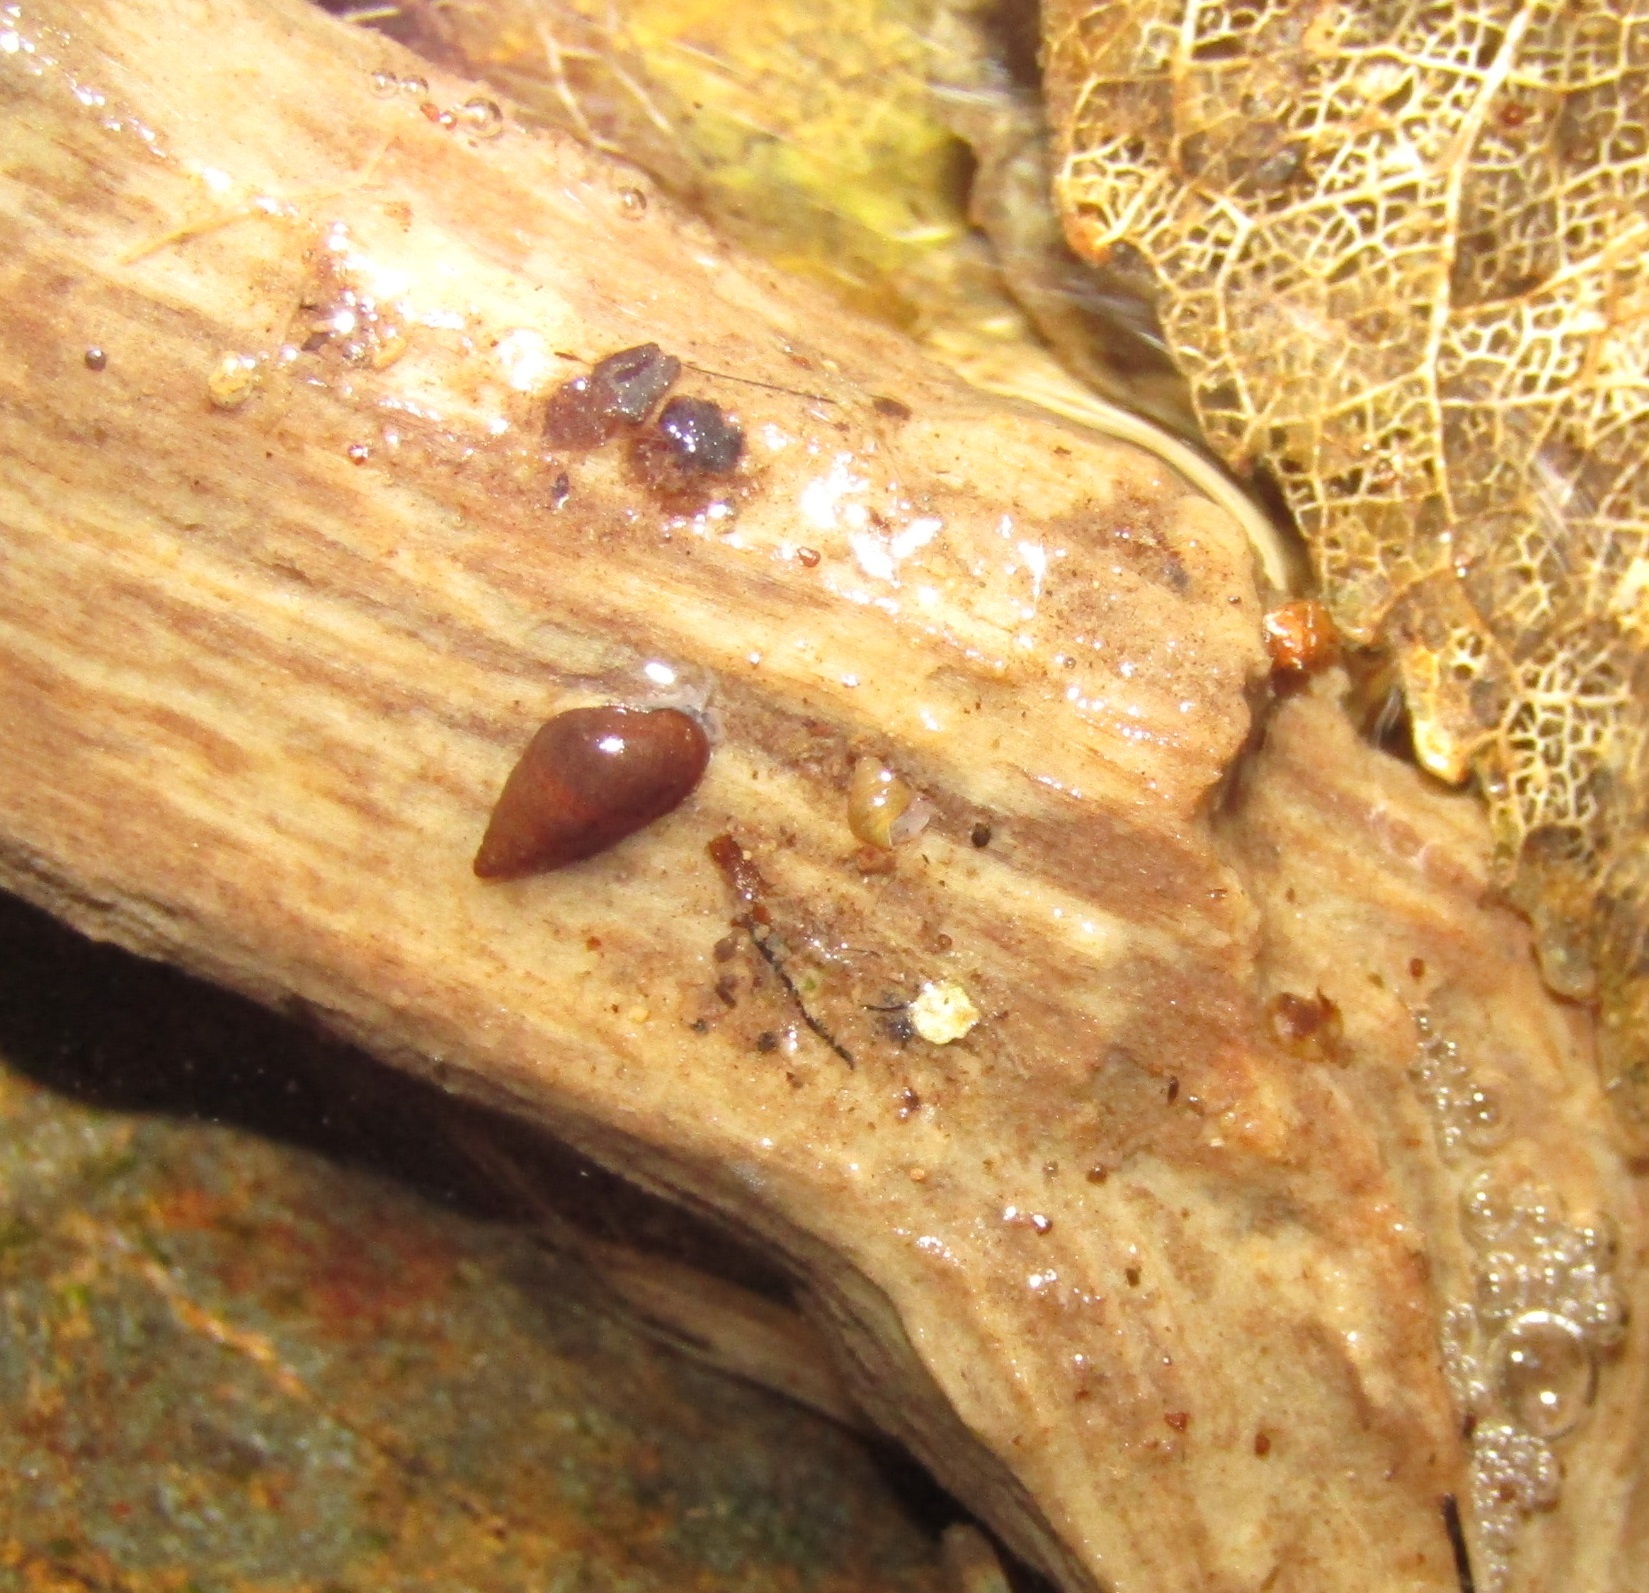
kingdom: Animalia
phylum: Mollusca
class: Gastropoda
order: Littorinimorpha
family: Tateidae
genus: Potamopyrgus
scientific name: Potamopyrgus antipodarum
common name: Jenkins' spire snail
